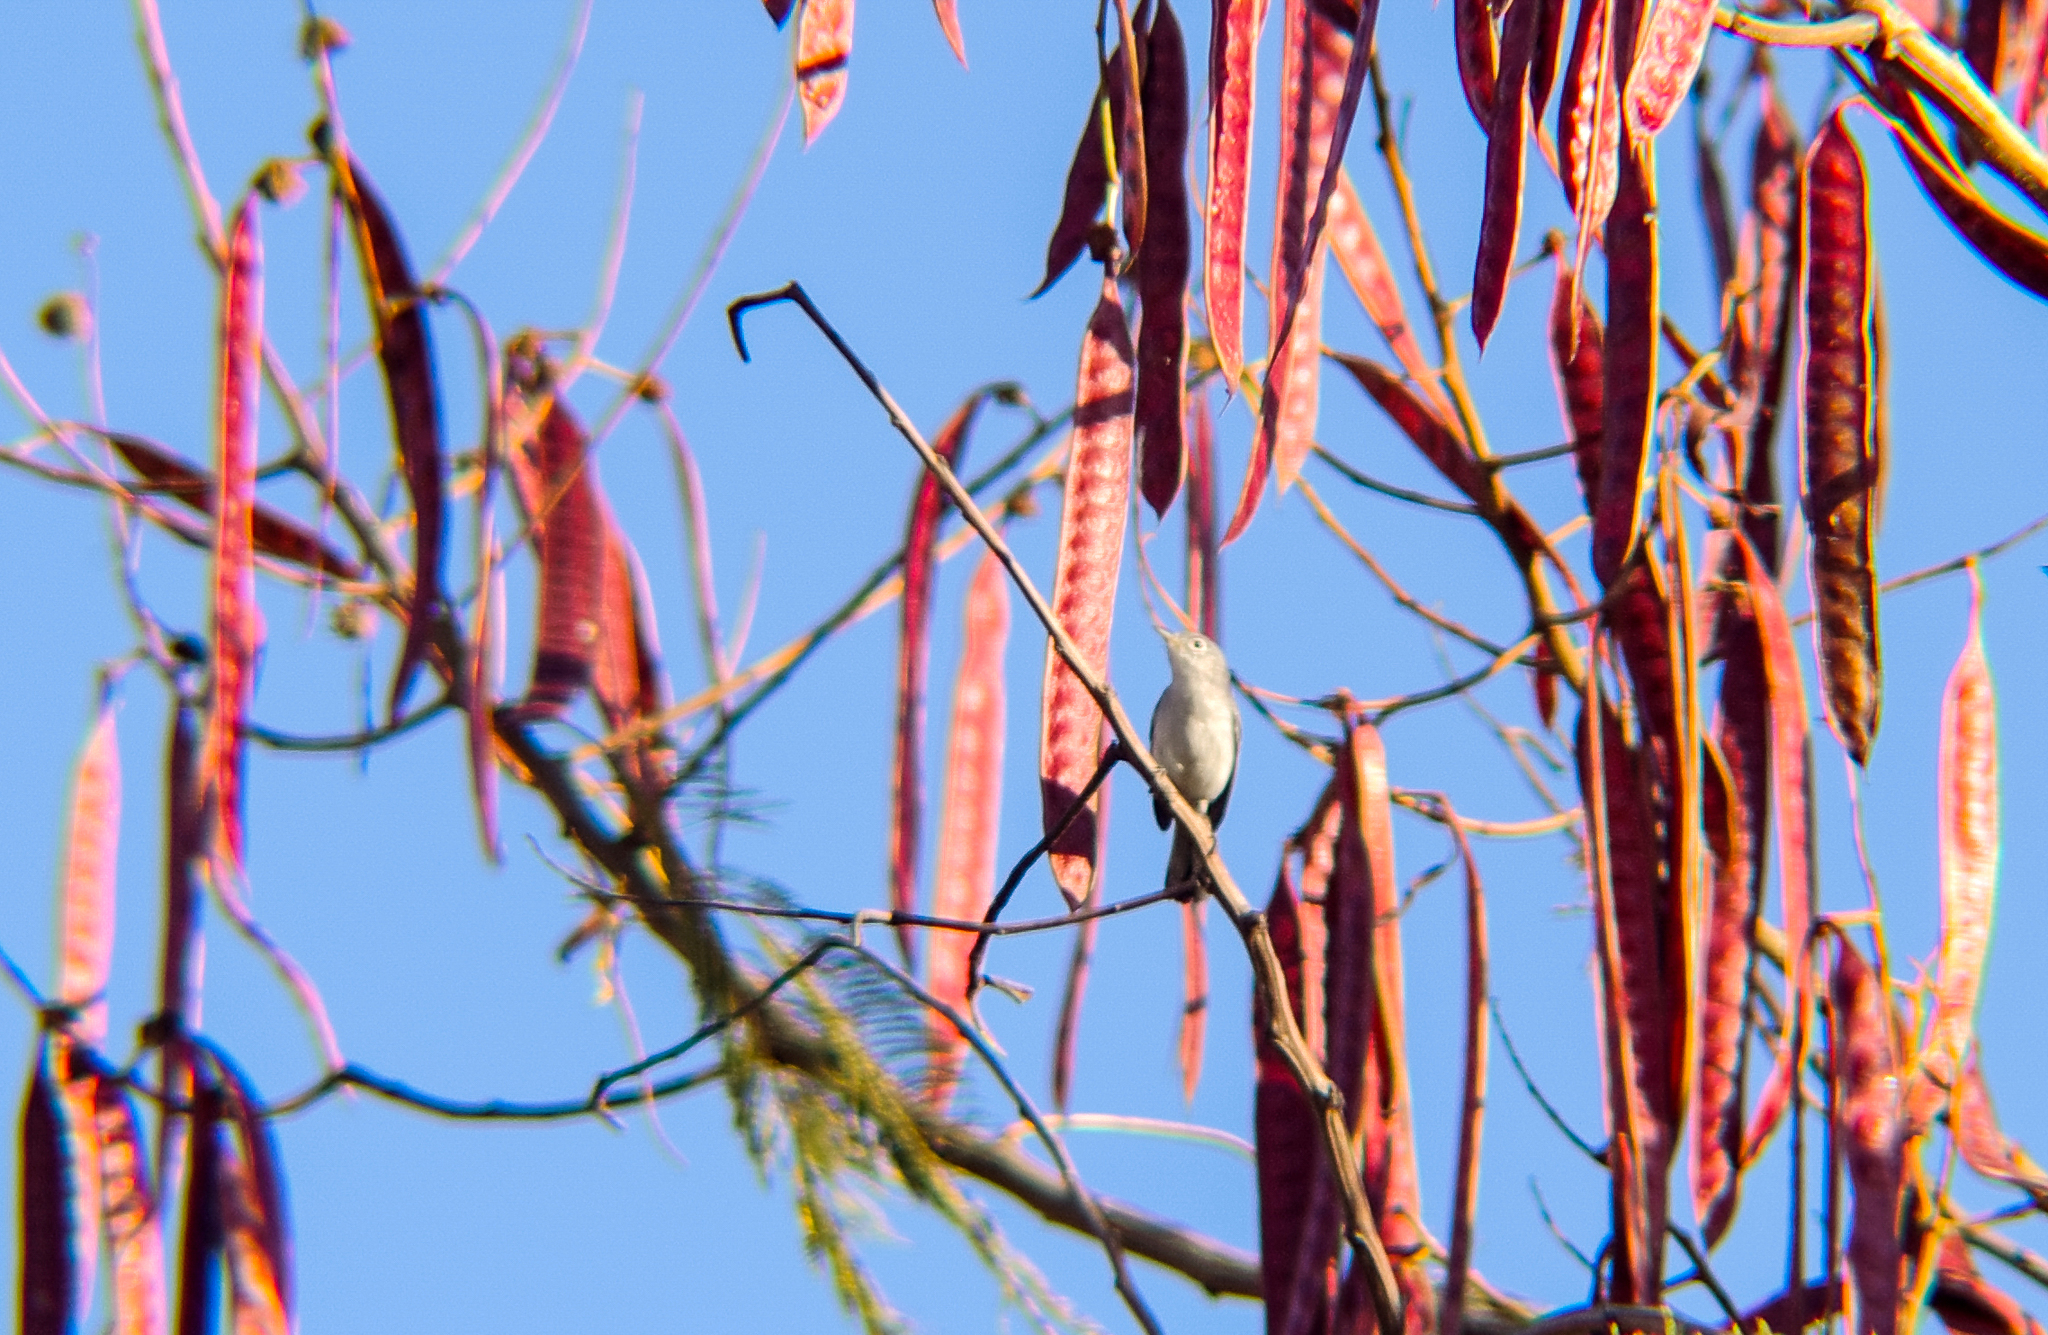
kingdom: Animalia
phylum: Chordata
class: Aves
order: Passeriformes
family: Polioptilidae
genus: Polioptila
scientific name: Polioptila caerulea
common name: Blue-gray gnatcatcher
